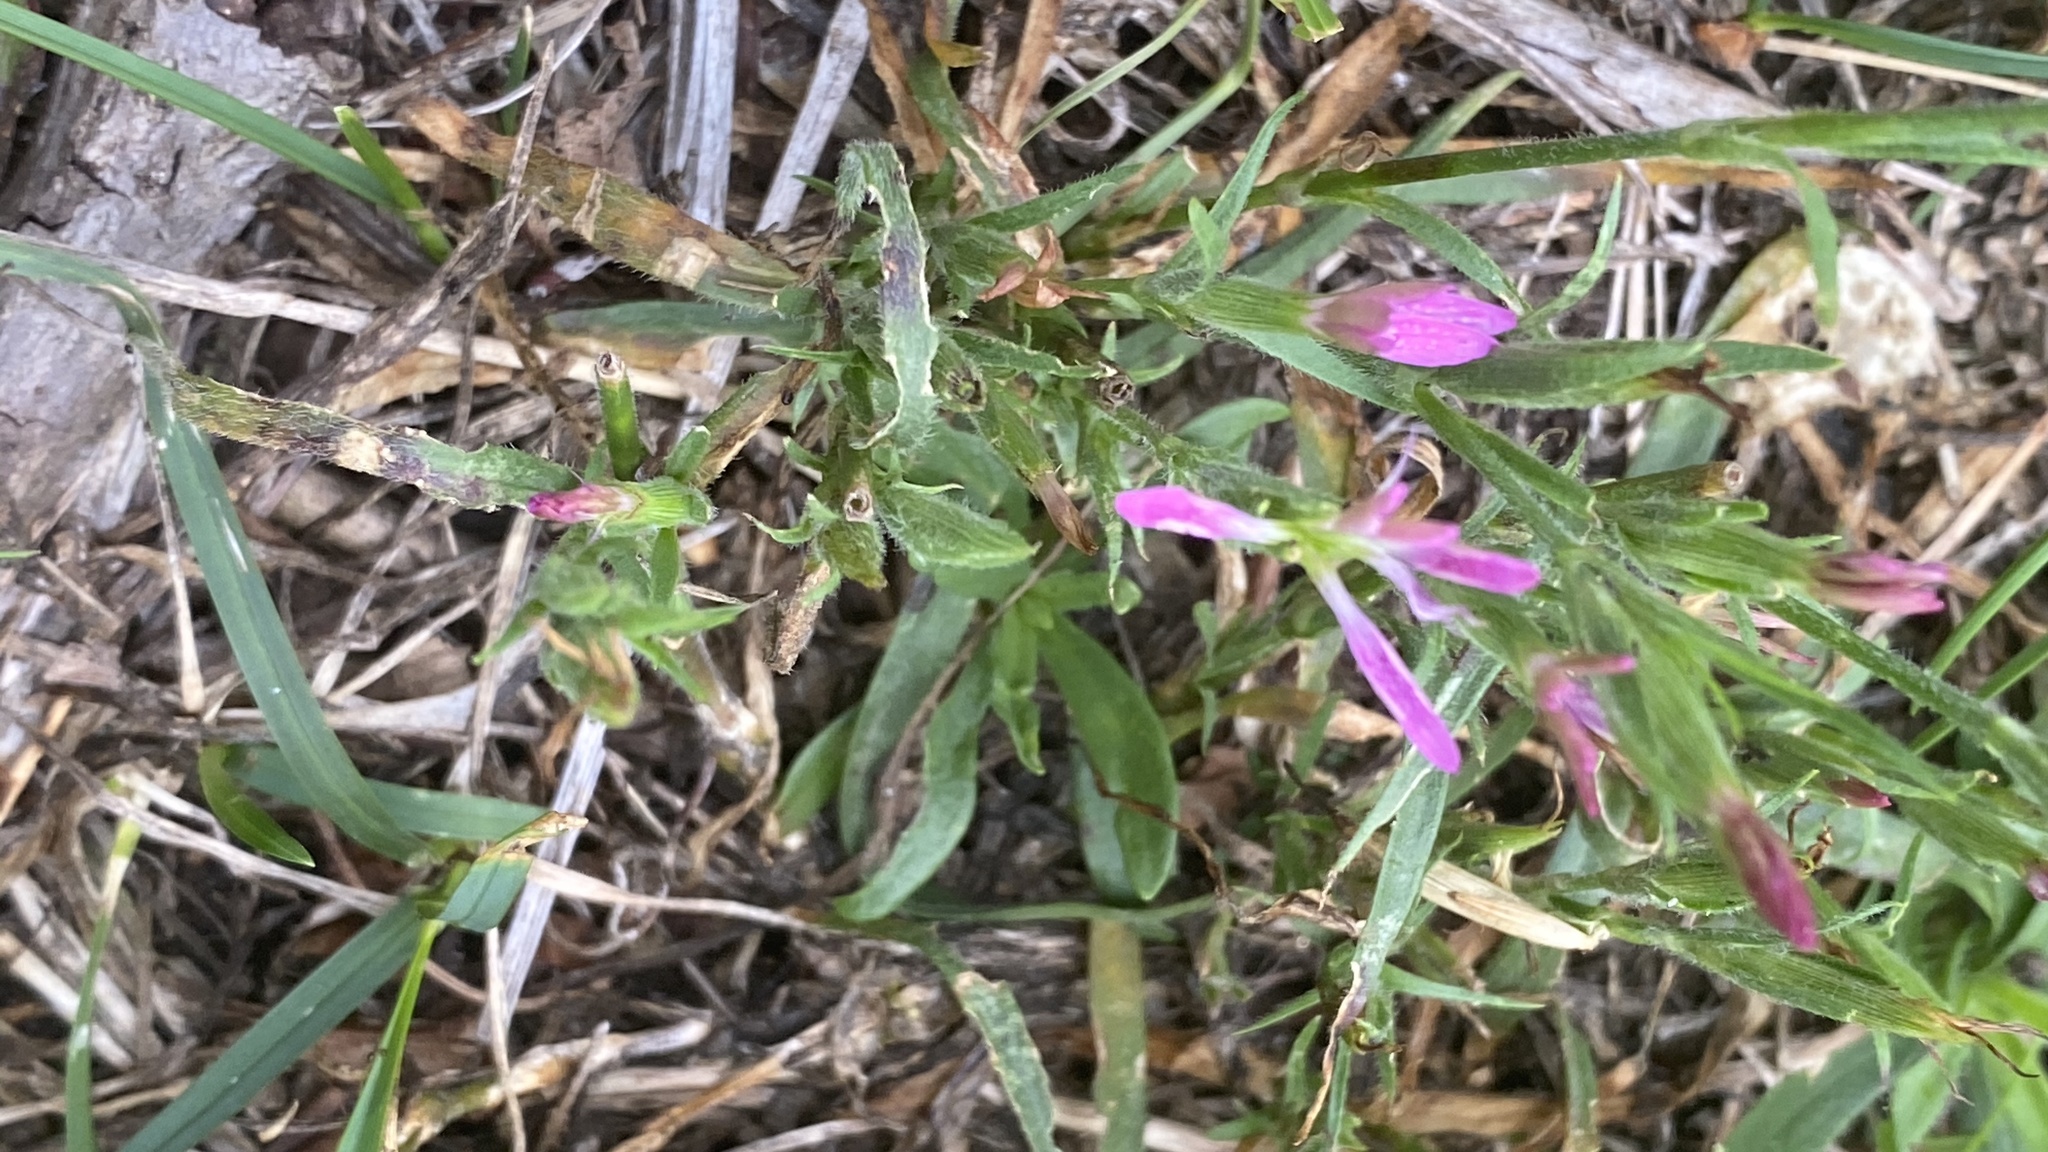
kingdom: Plantae
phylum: Tracheophyta
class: Magnoliopsida
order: Caryophyllales
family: Caryophyllaceae
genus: Dianthus
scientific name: Dianthus armeria
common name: Deptford pink
